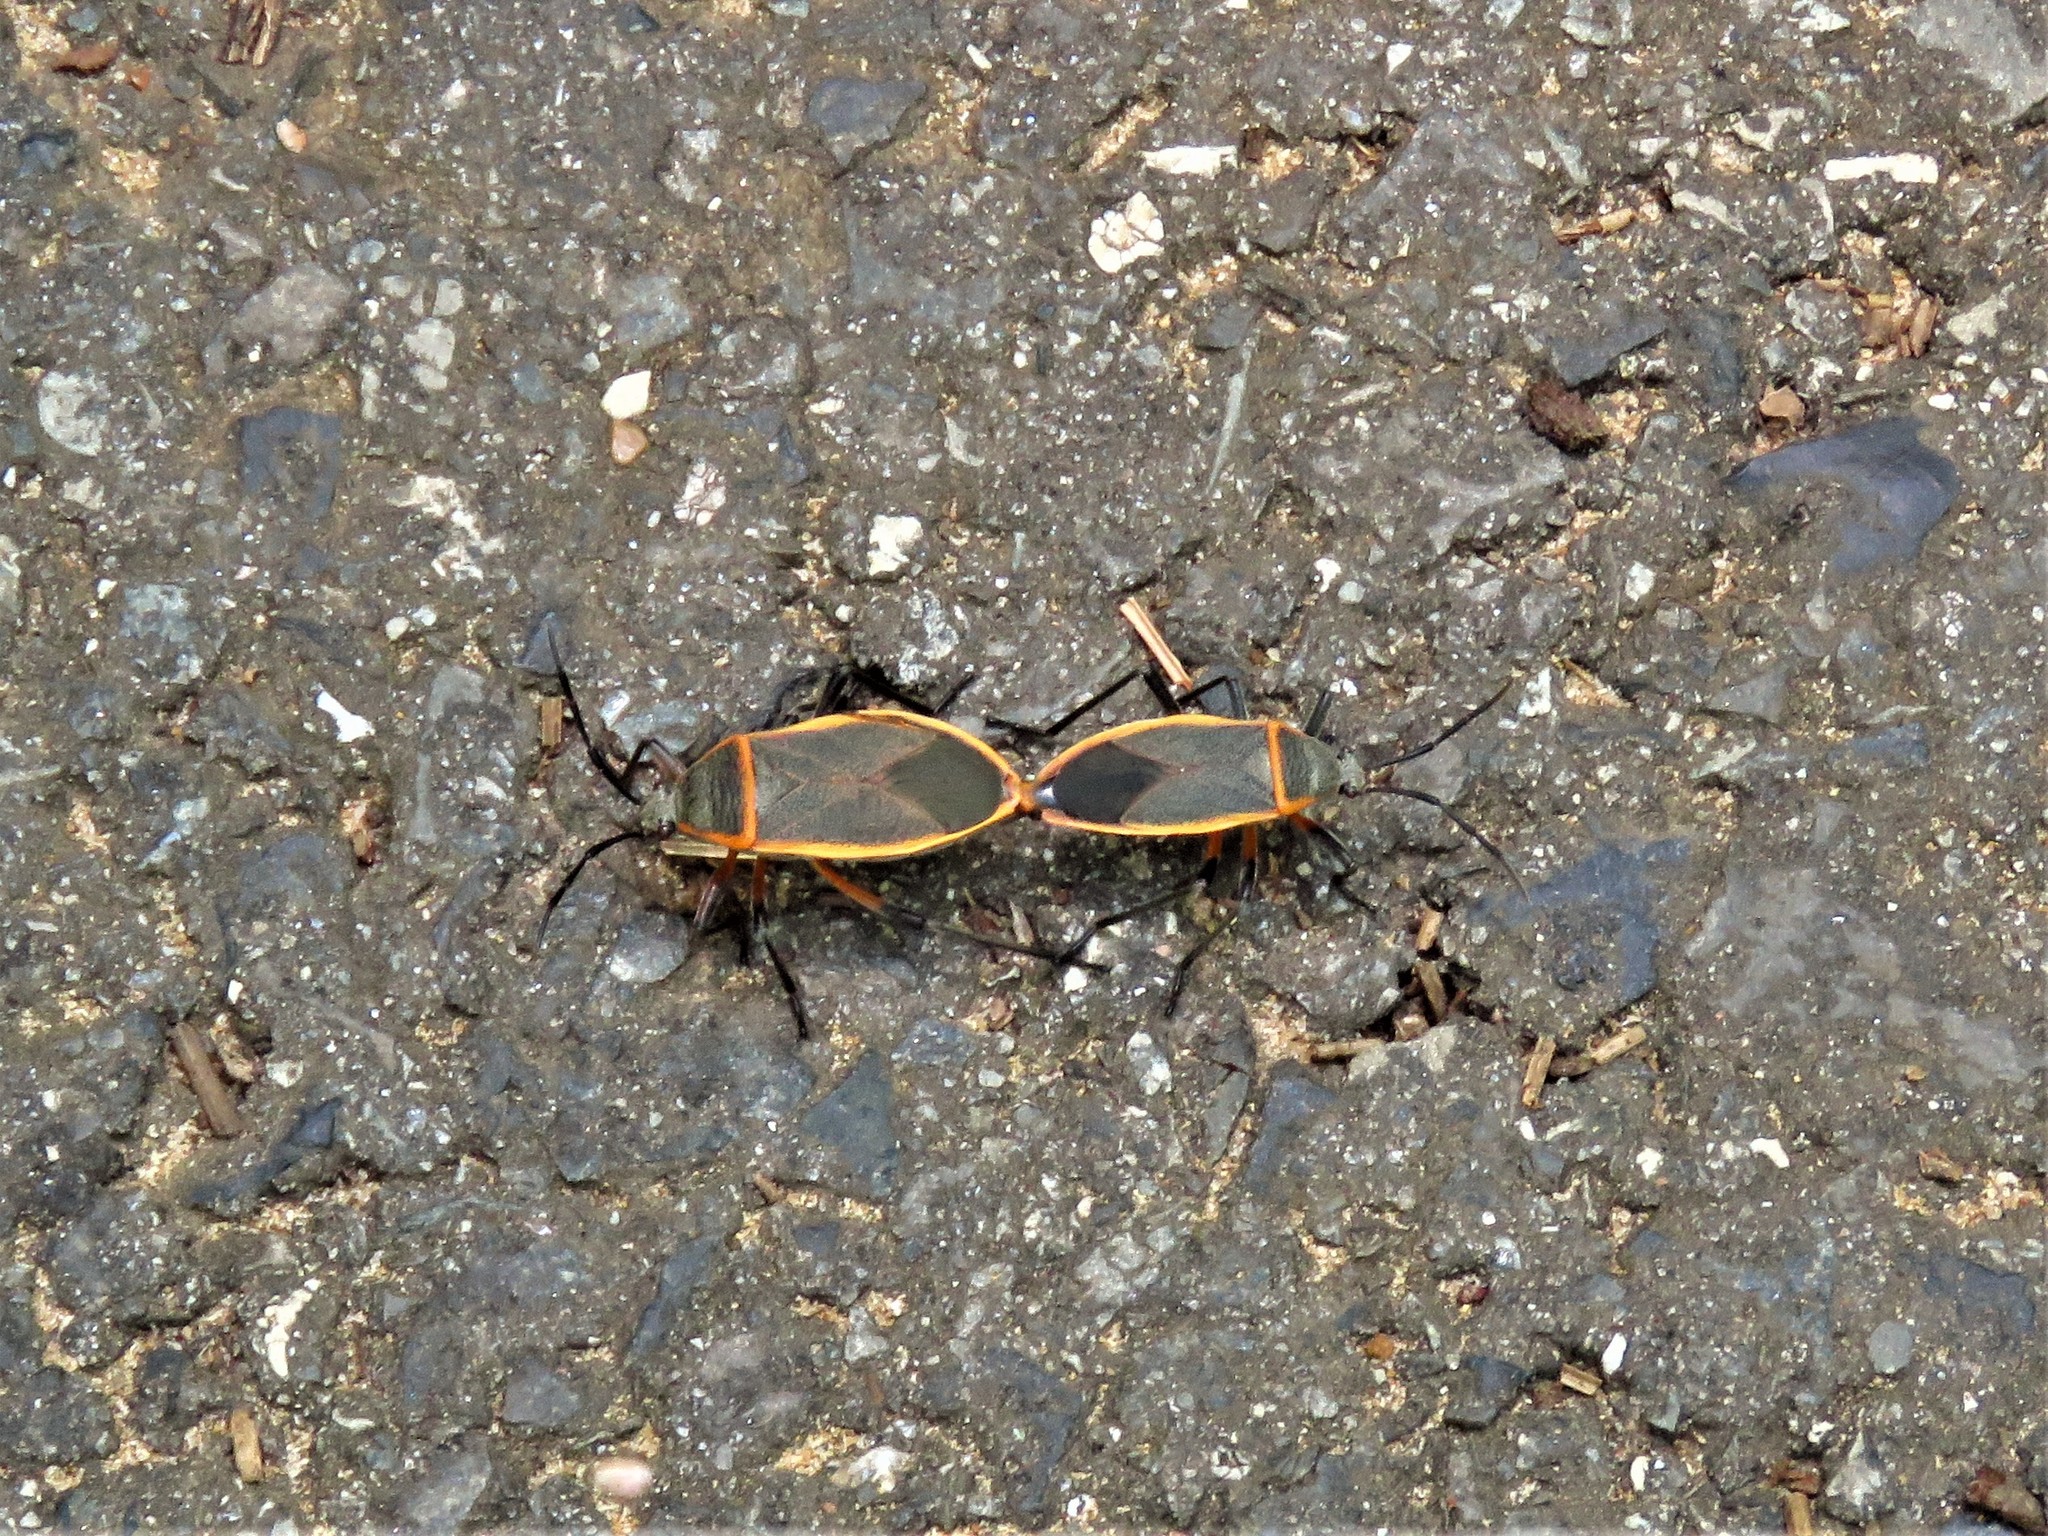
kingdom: Animalia
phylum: Arthropoda
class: Insecta
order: Hemiptera
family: Largidae
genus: Largus
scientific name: Largus succinctus
